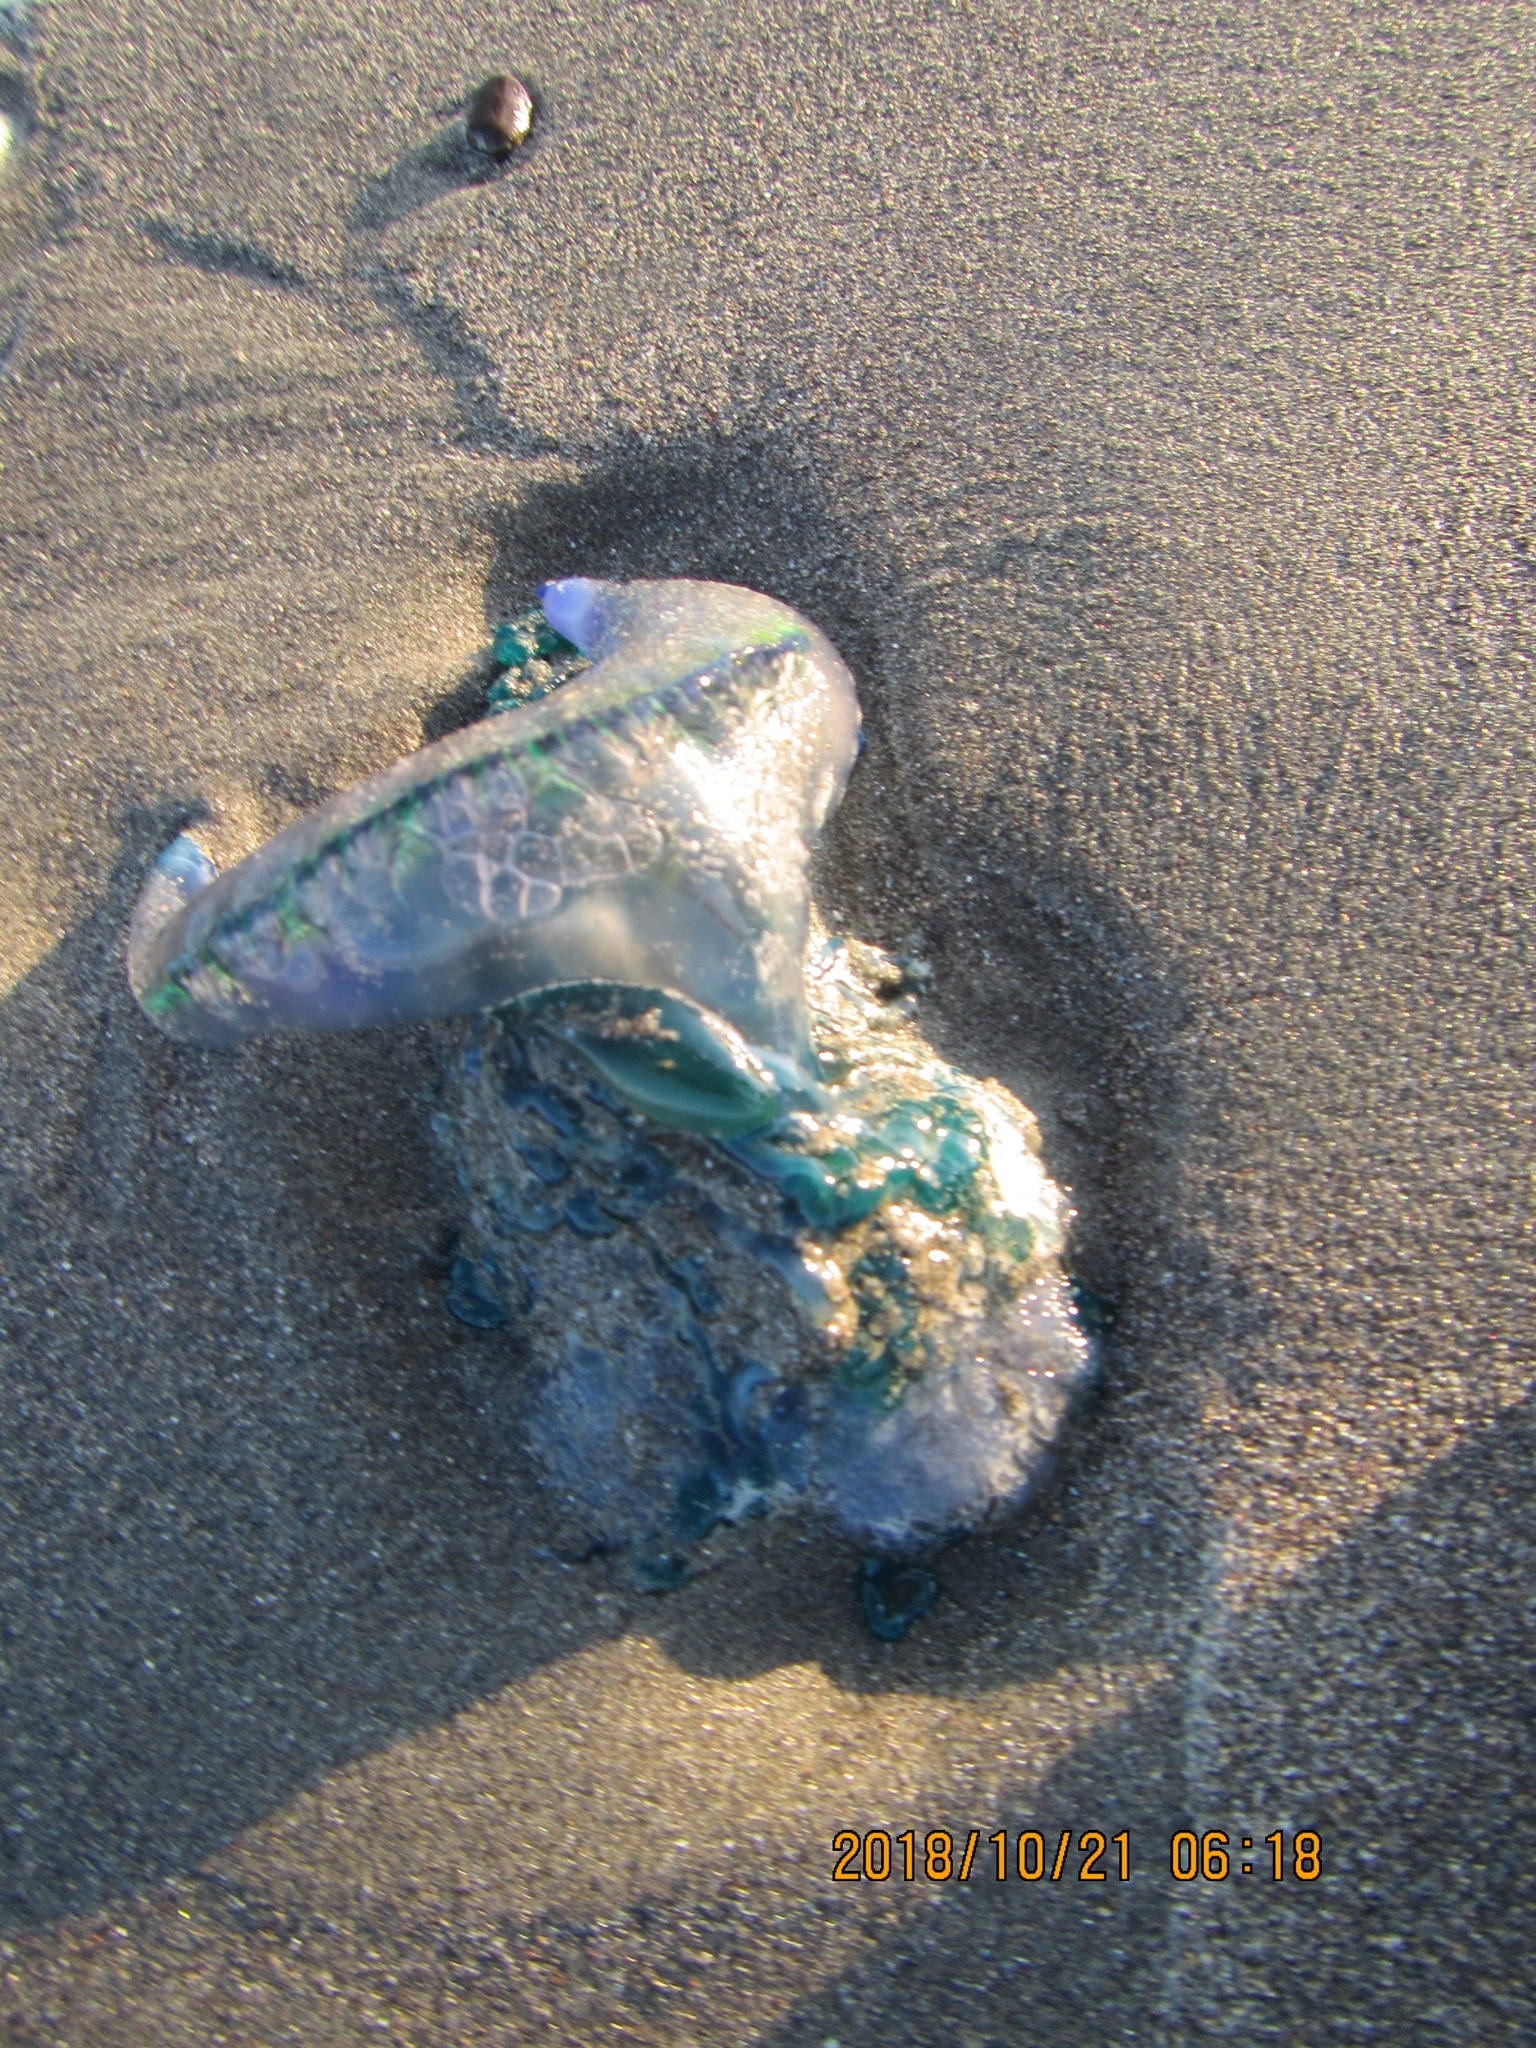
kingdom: Animalia
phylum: Cnidaria
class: Hydrozoa
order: Siphonophorae
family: Physaliidae
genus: Physalia
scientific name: Physalia physalis
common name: Portuguese man-of-war
